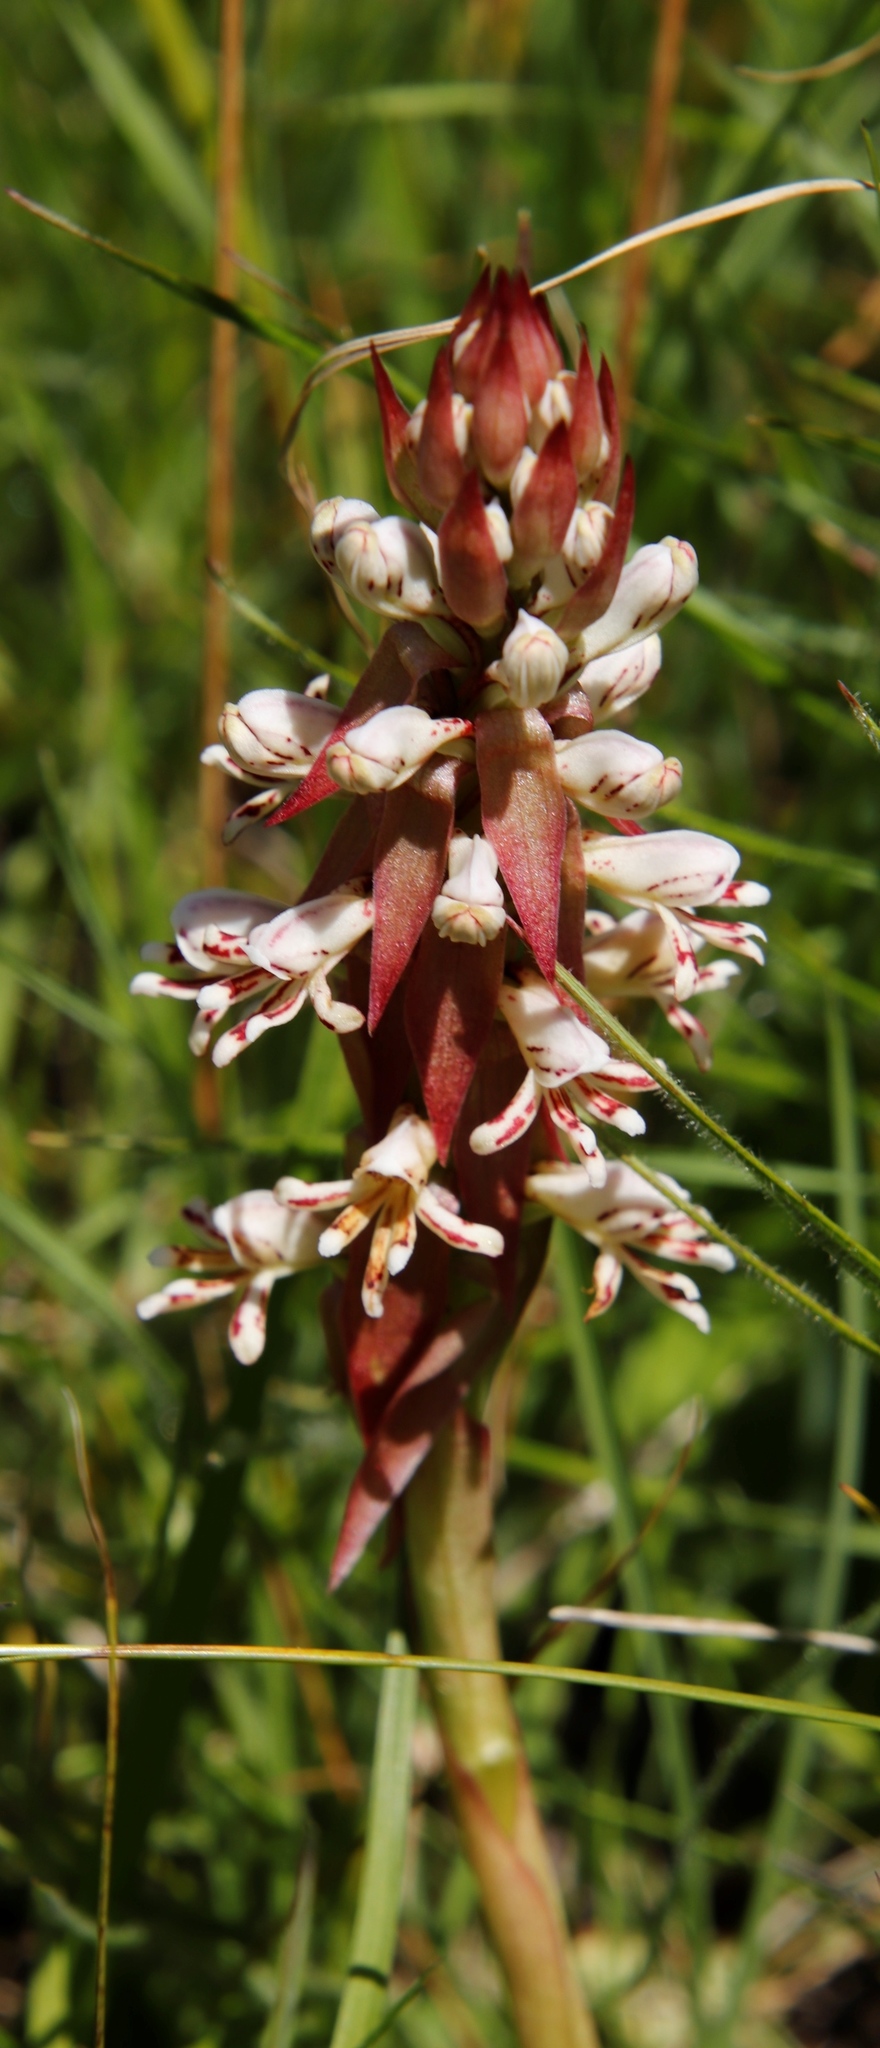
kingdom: Plantae
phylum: Tracheophyta
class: Liliopsida
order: Asparagales
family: Orchidaceae
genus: Satyrium
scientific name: Satyrium cristatum
